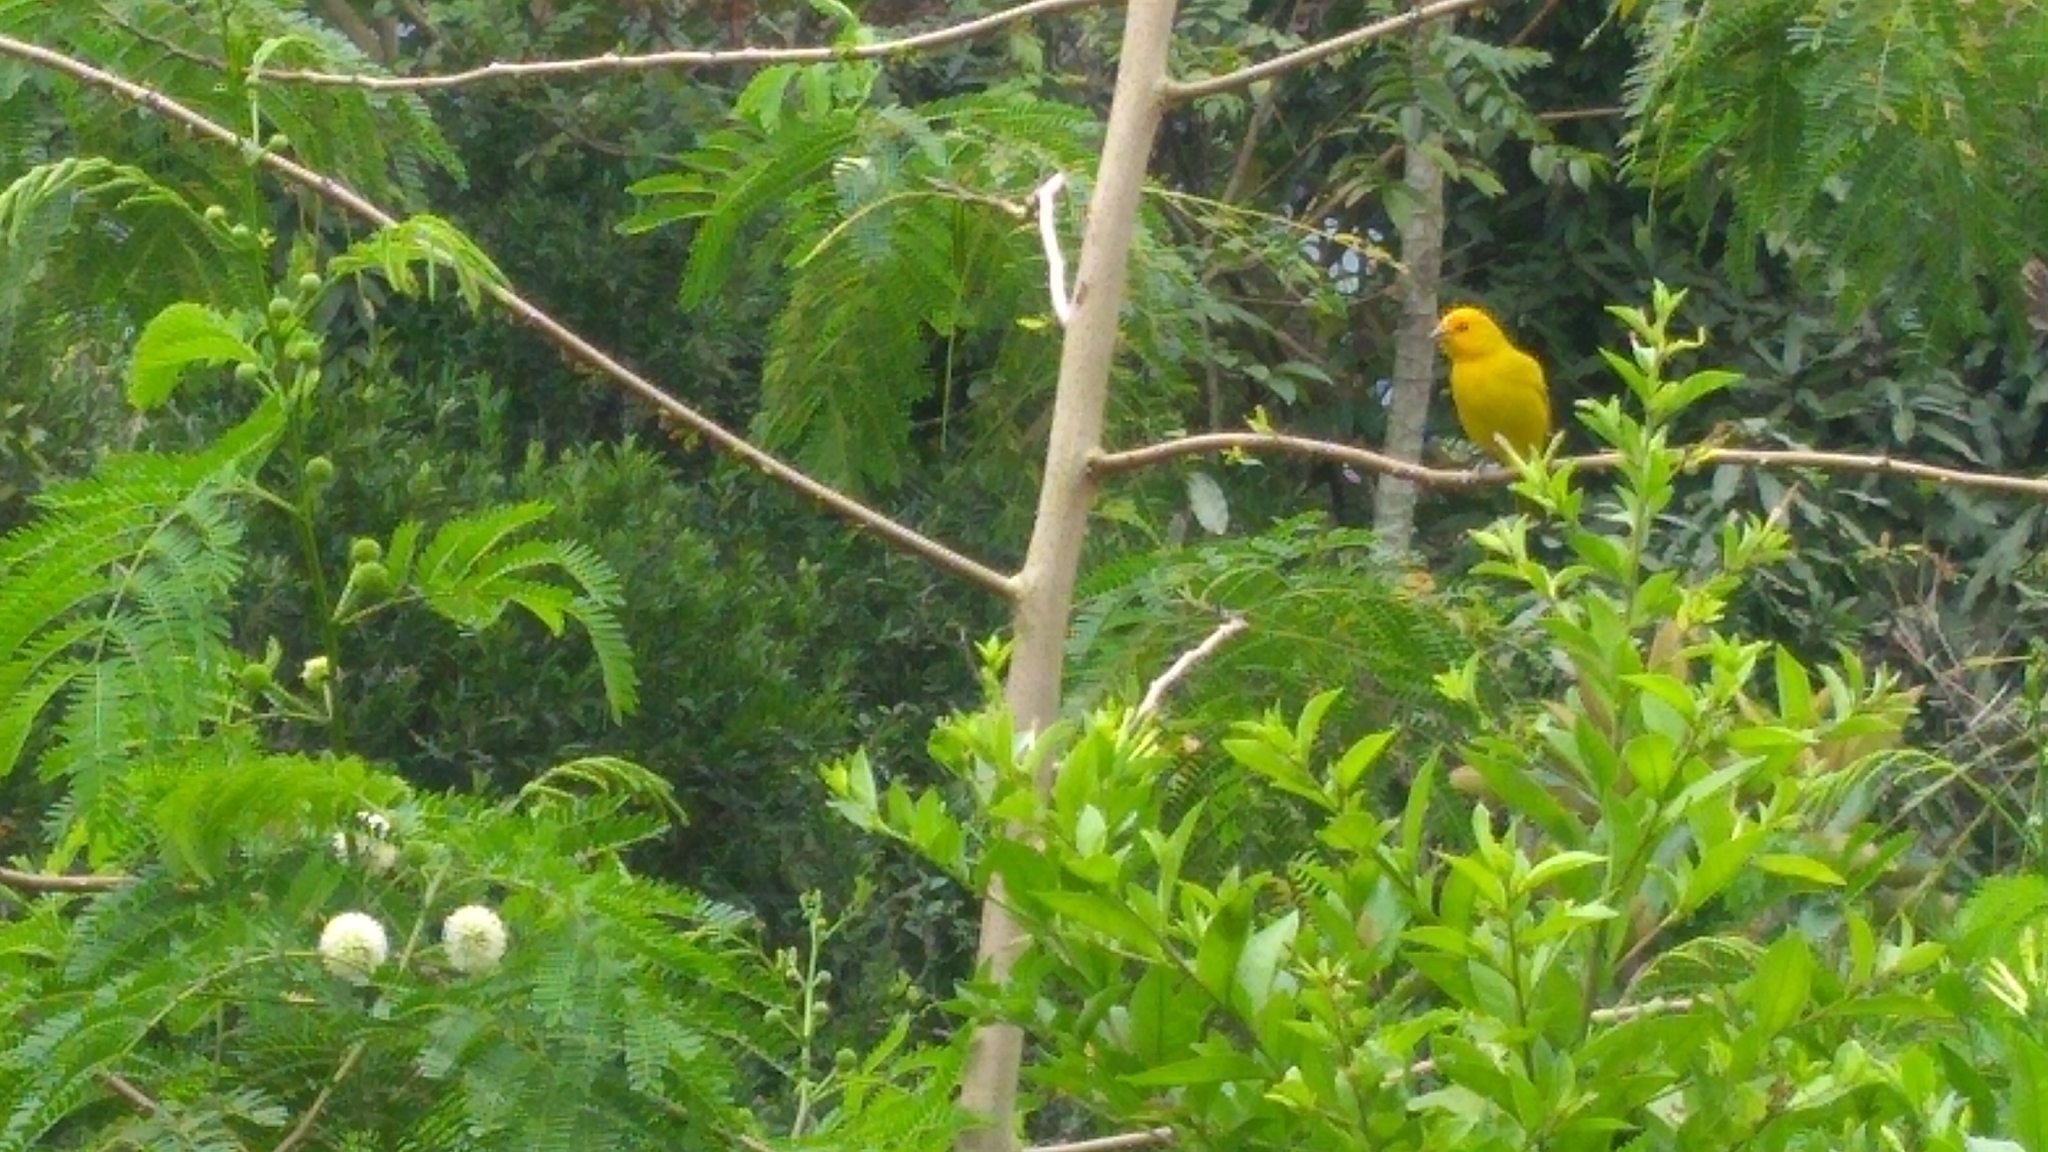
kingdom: Animalia
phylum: Chordata
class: Aves
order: Passeriformes
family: Thraupidae
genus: Sicalis
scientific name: Sicalis flaveola
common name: Saffron finch
